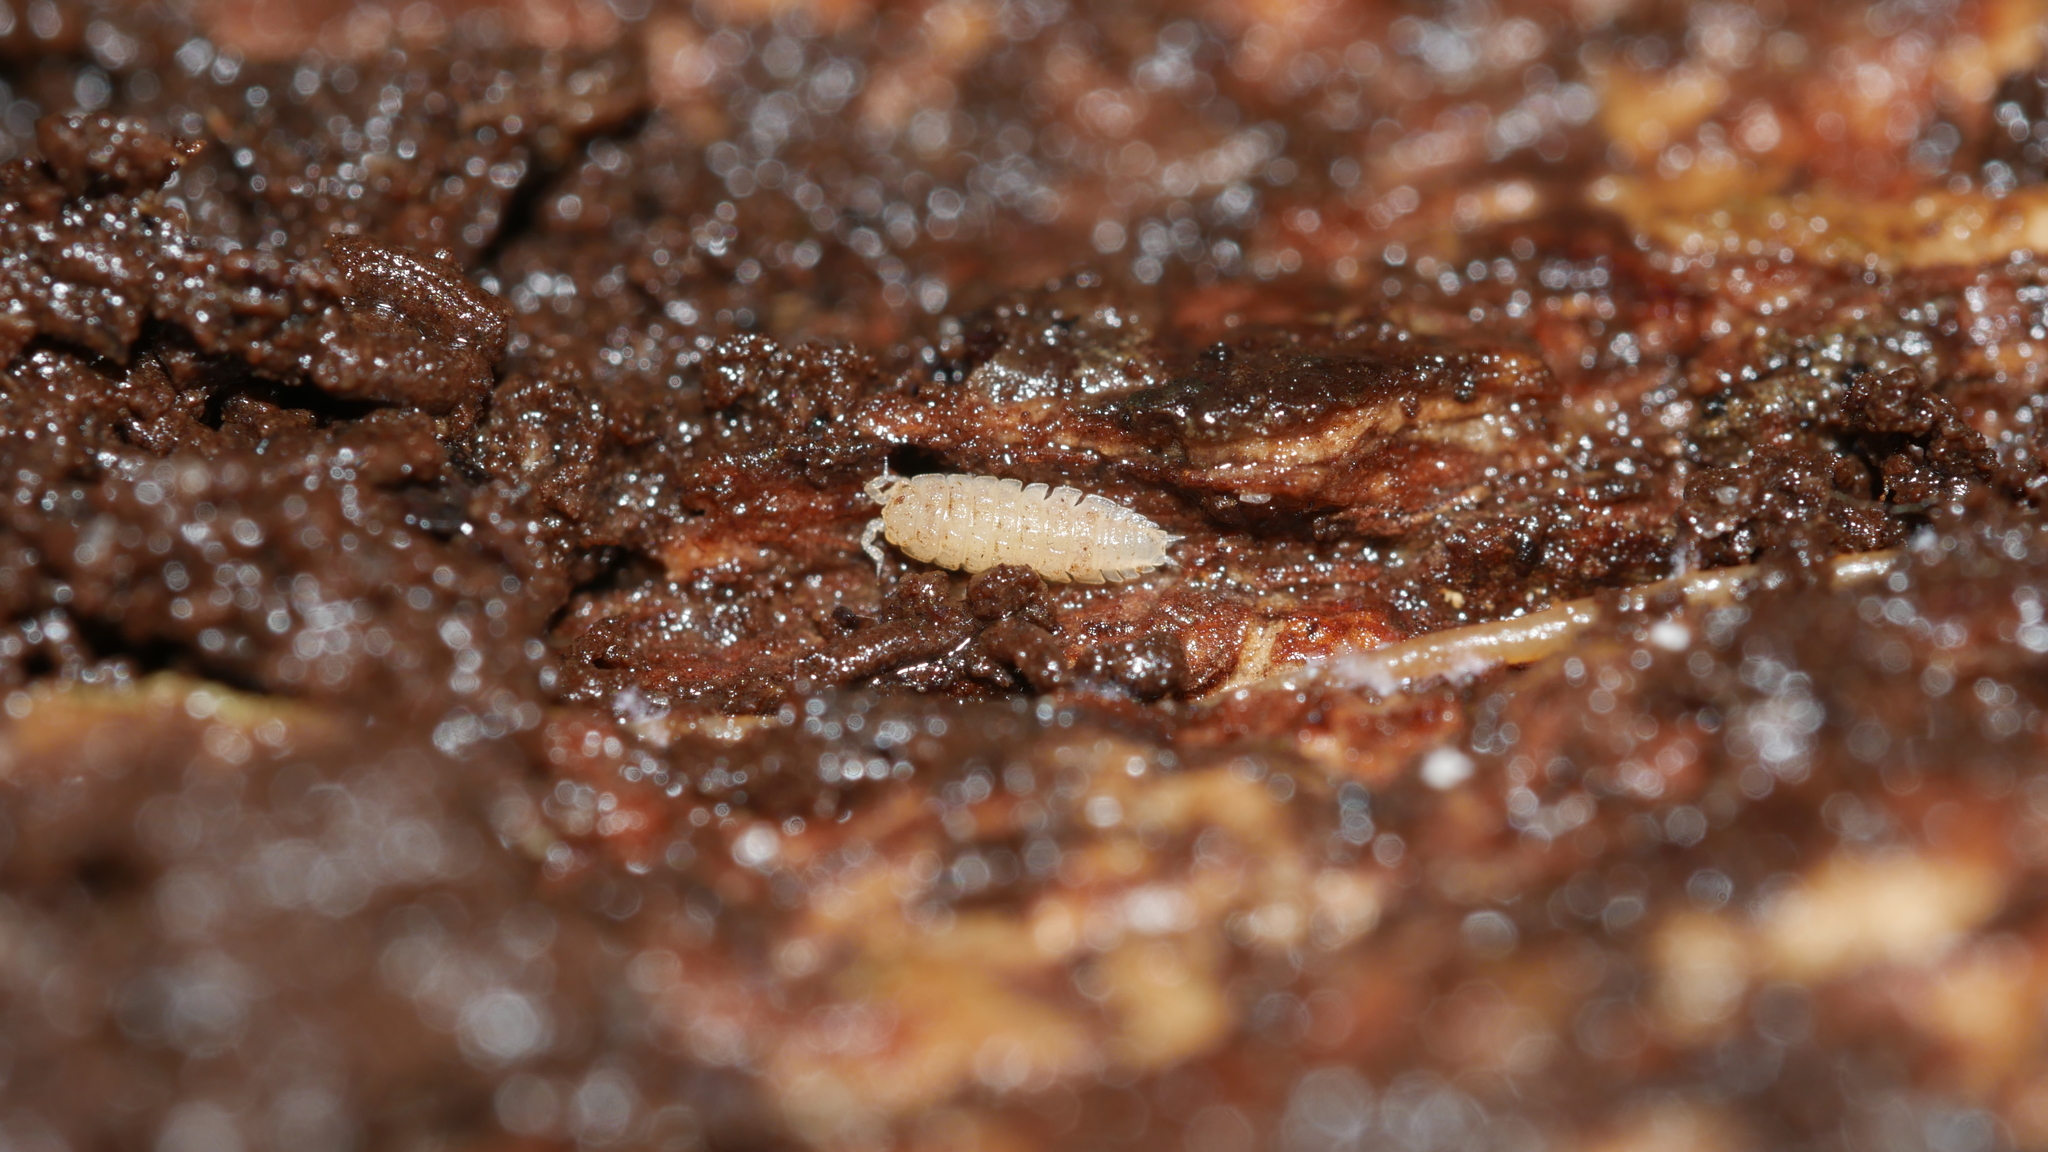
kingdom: Animalia
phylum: Arthropoda
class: Malacostraca
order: Isopoda
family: Trichoniscidae
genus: Haplophthalmus
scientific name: Haplophthalmus danicus
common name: Pillbug
